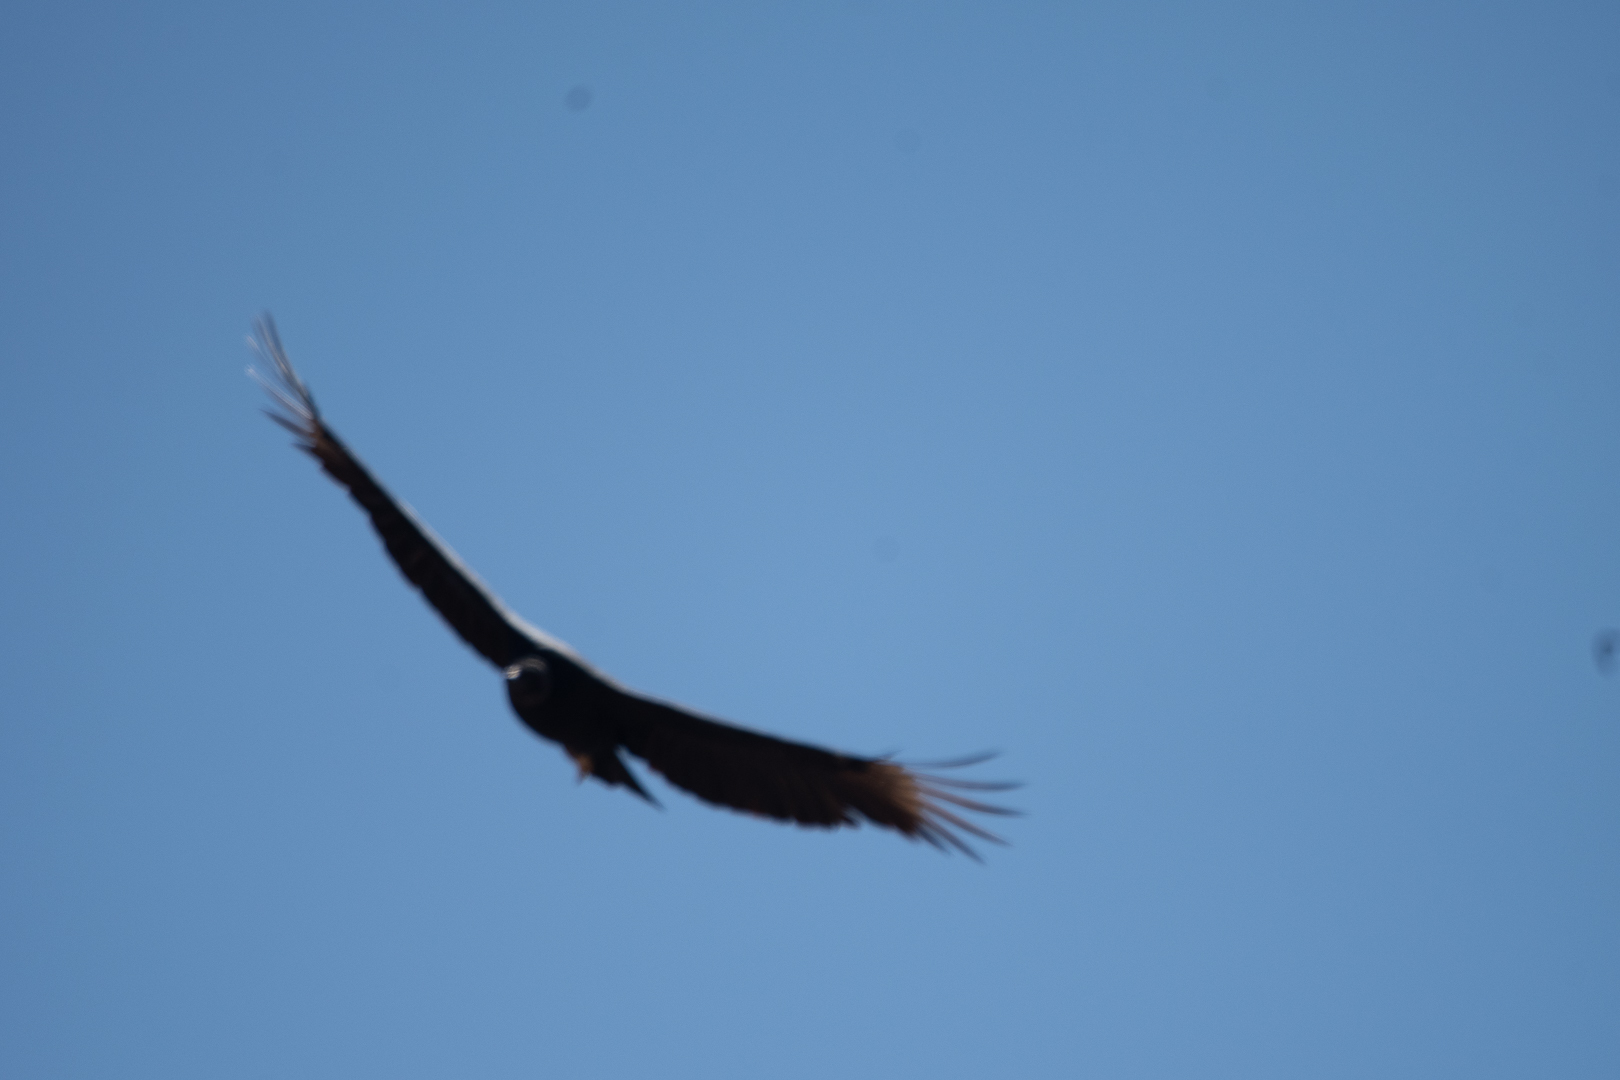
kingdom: Animalia
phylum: Chordata
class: Aves
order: Accipitriformes
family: Cathartidae
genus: Coragyps
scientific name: Coragyps atratus
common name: Black vulture
